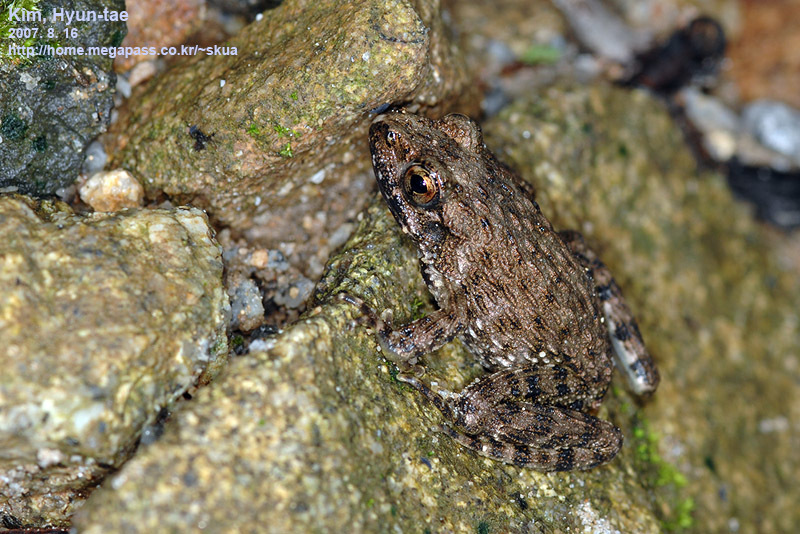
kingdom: Animalia
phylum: Chordata
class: Amphibia
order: Anura
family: Ranidae
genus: Glandirana
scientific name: Glandirana emeljanovi
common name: Northeast china rough-skinned frog
